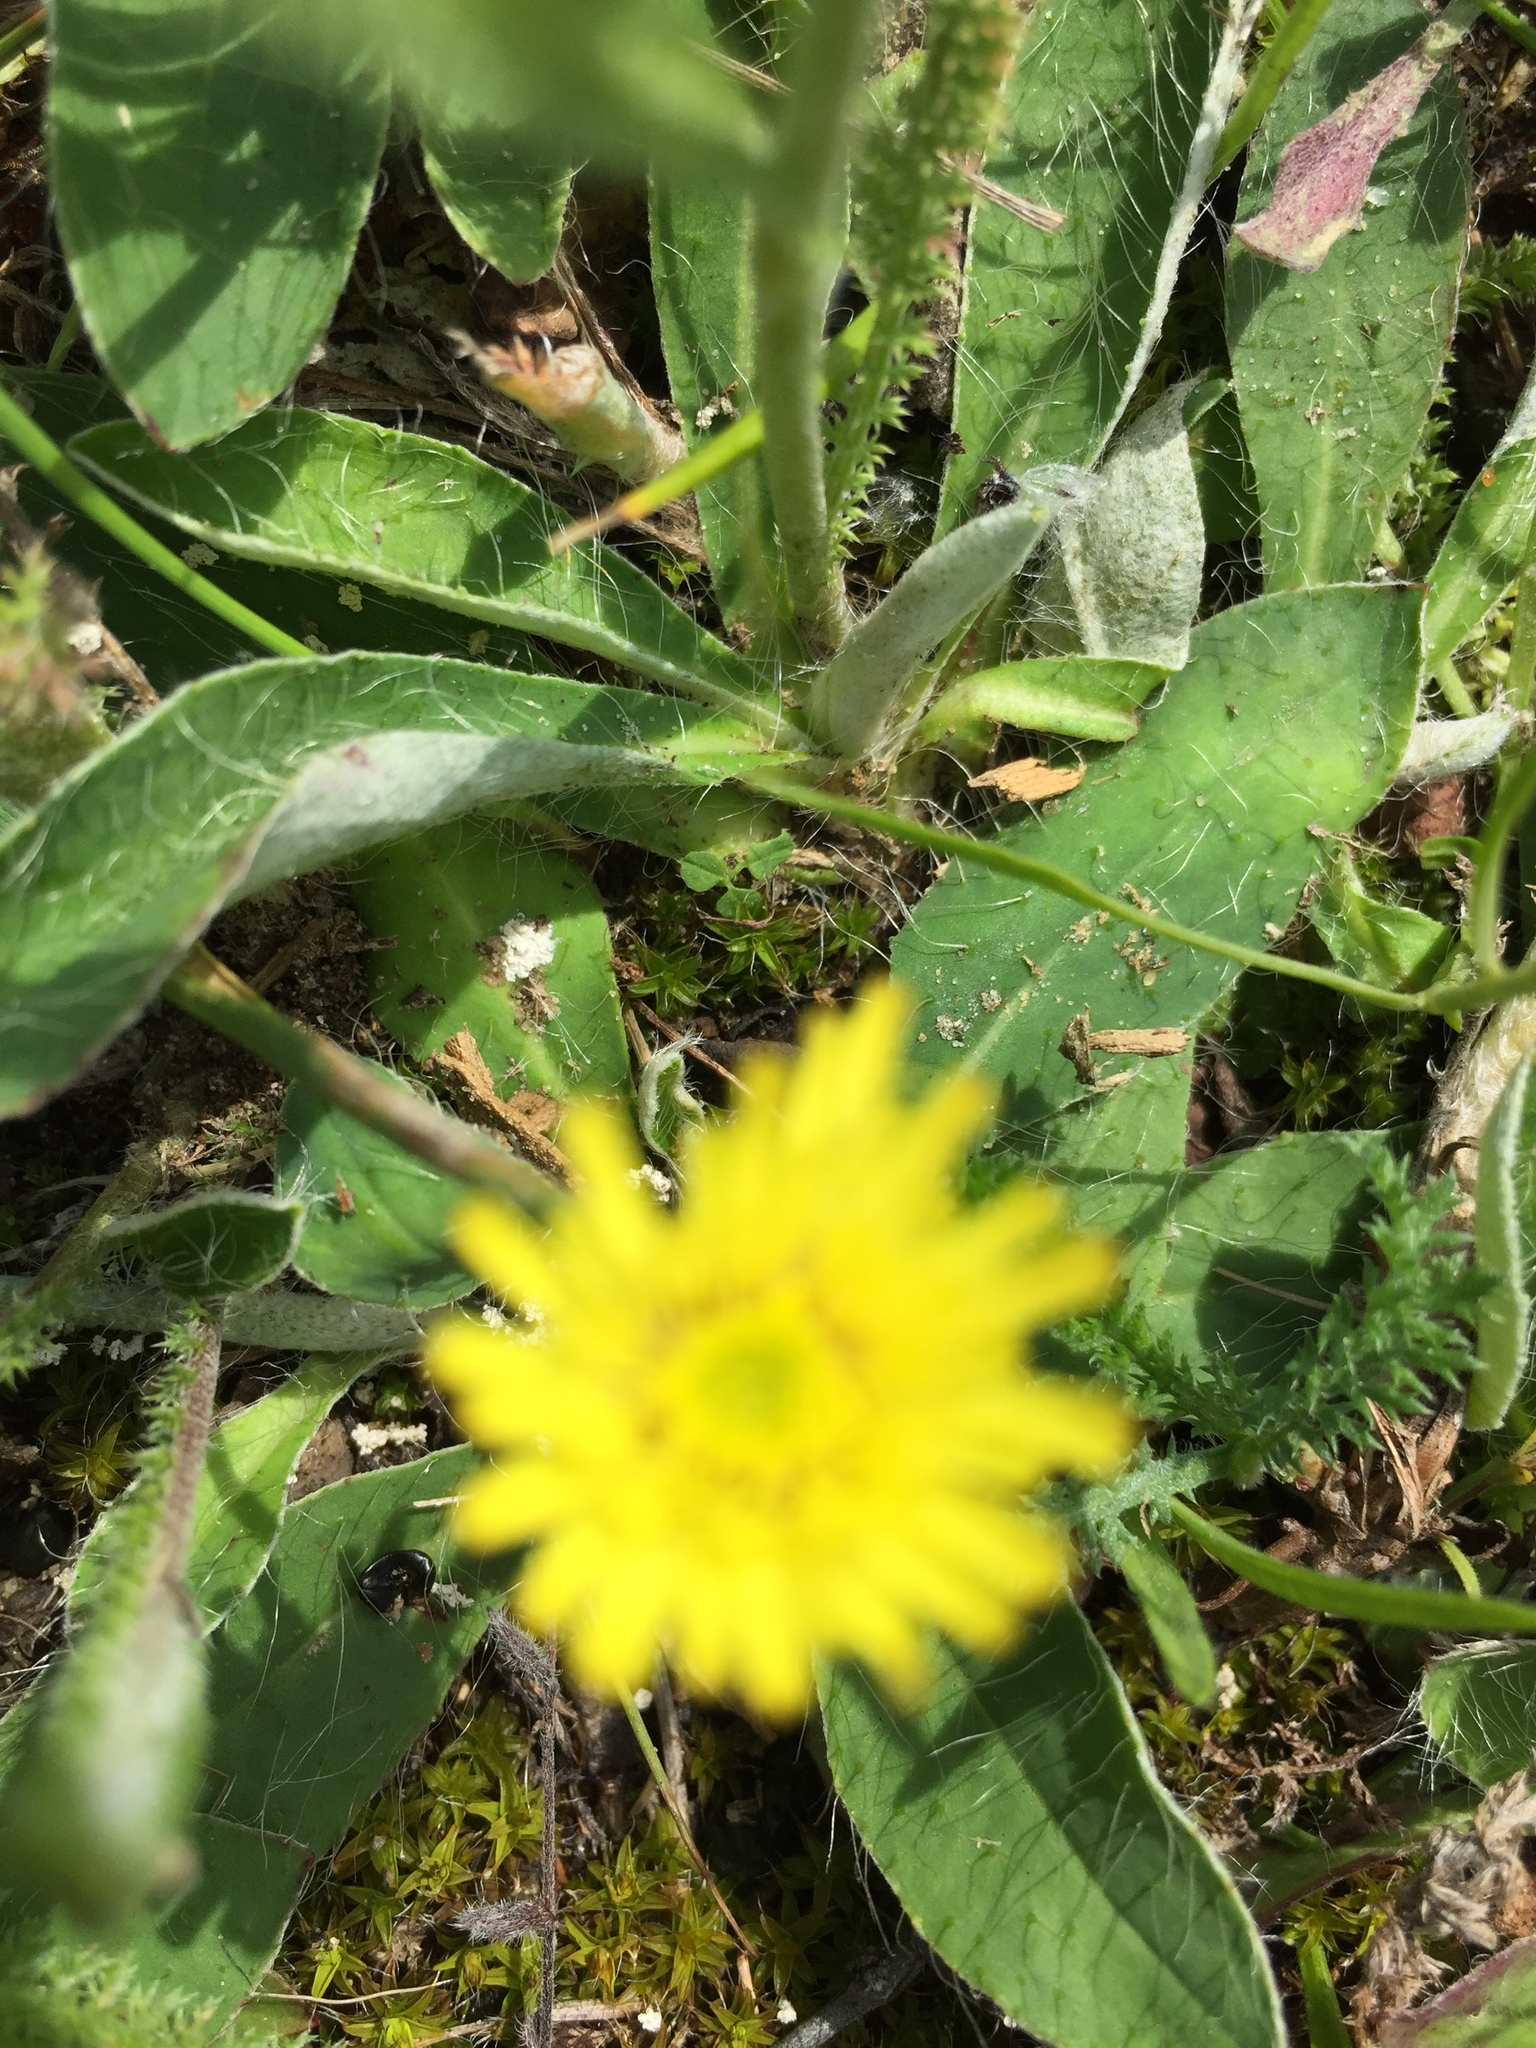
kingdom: Plantae
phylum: Tracheophyta
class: Magnoliopsida
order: Asterales
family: Asteraceae
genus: Pilosella
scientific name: Pilosella officinarum
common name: Mouse-ear hawkweed
